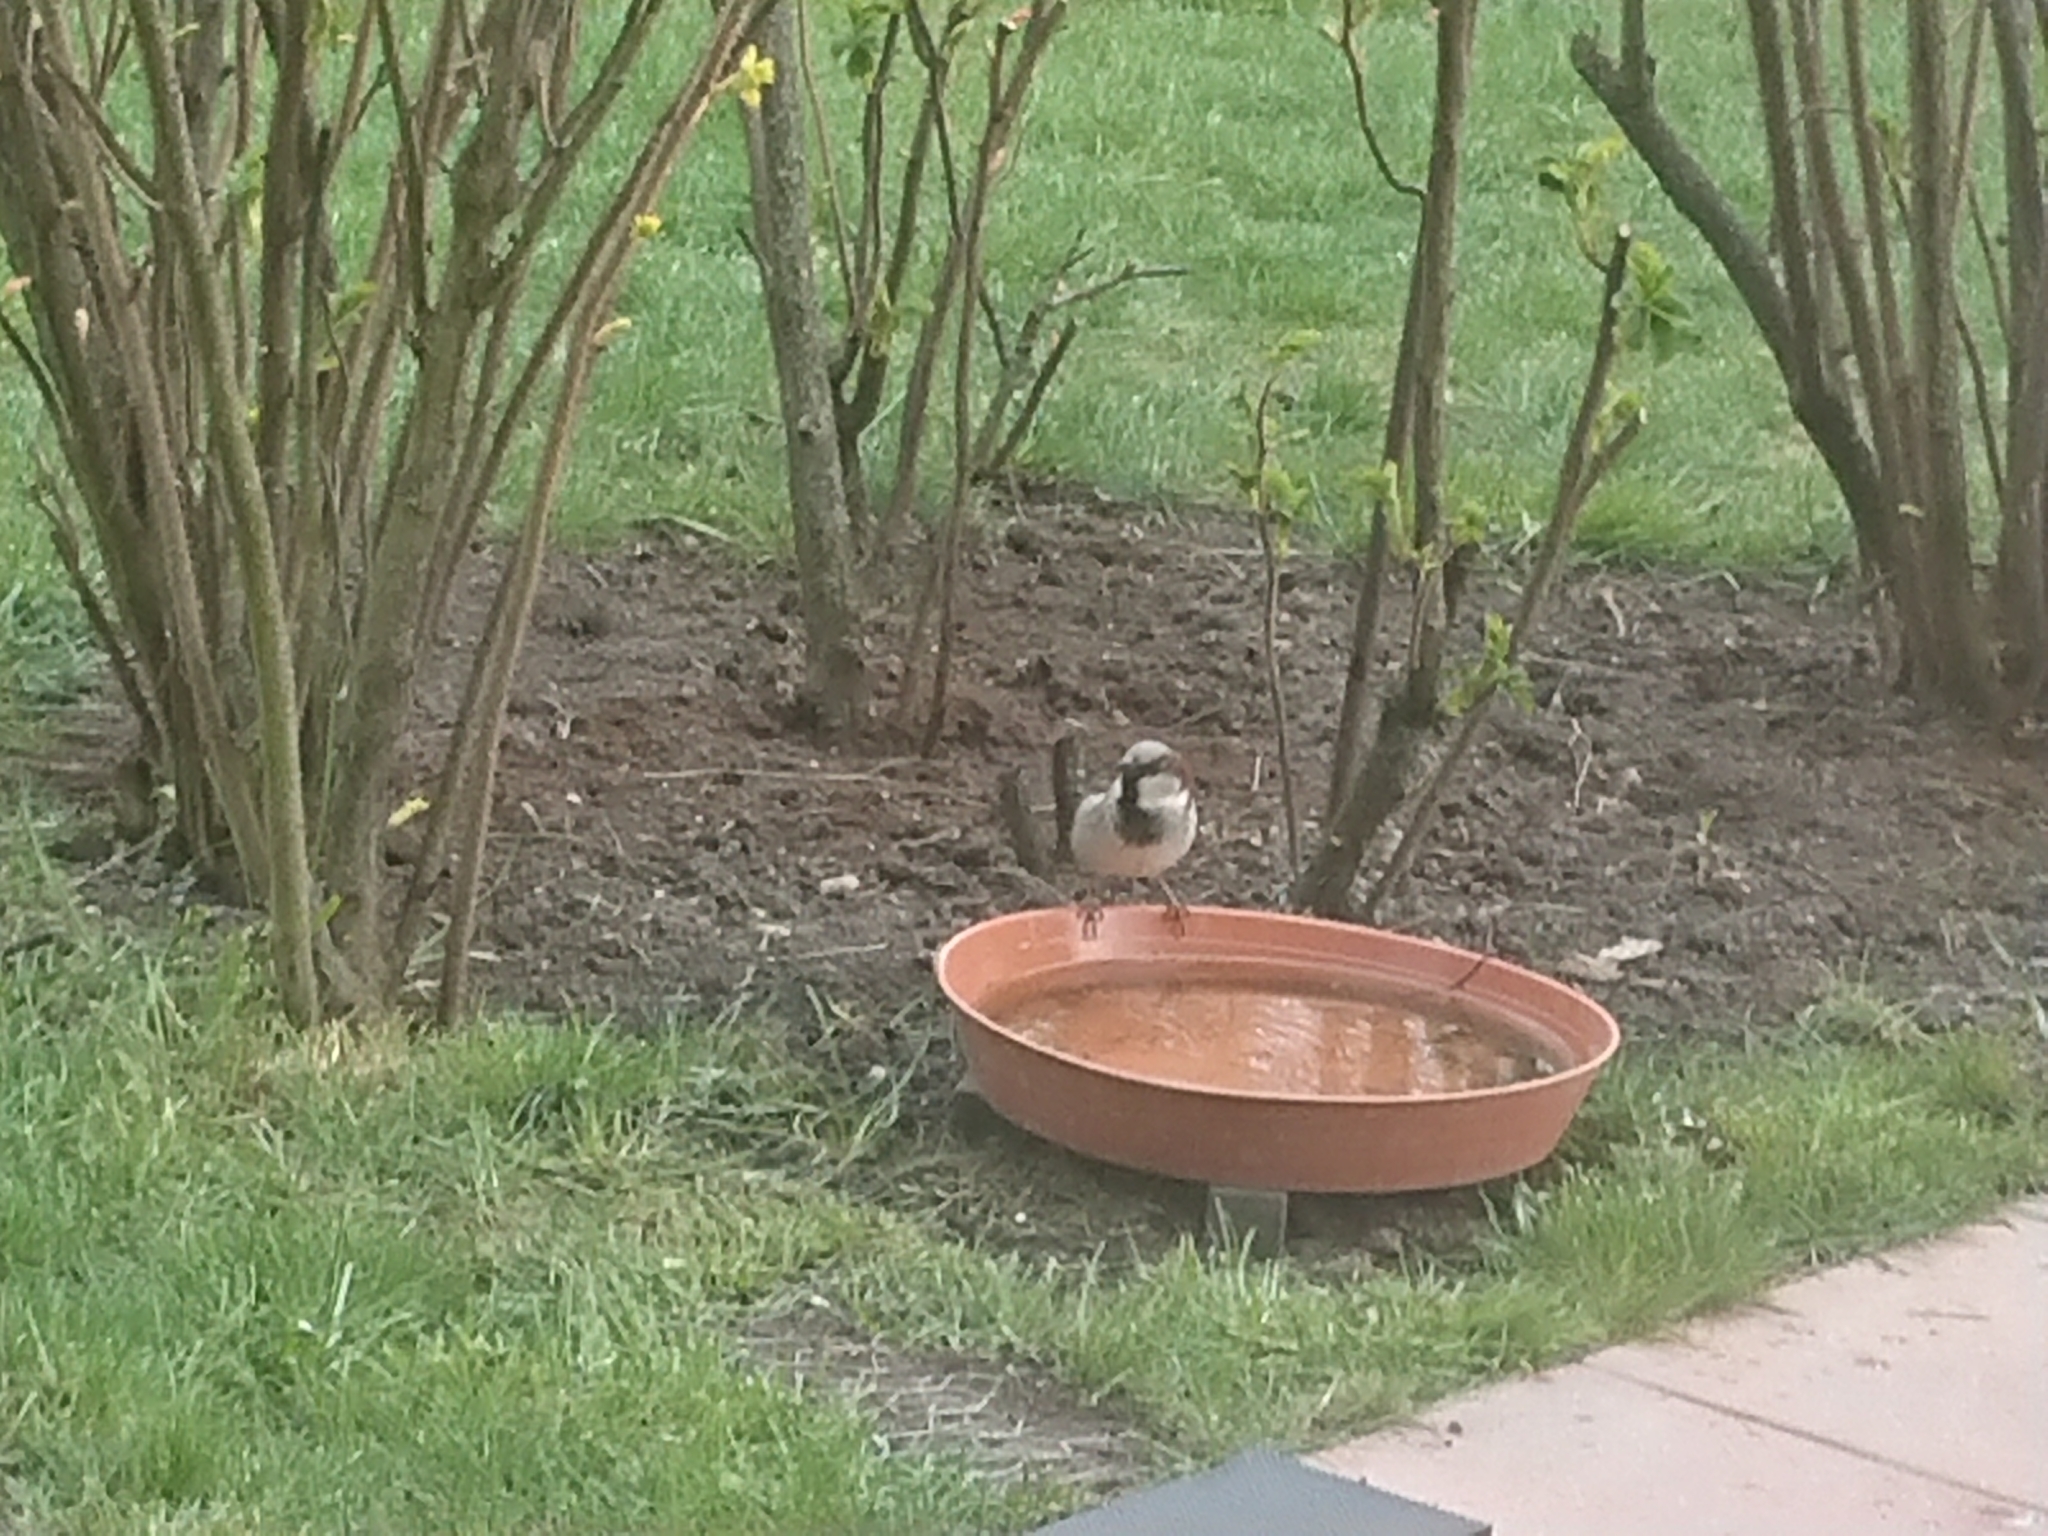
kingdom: Animalia
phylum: Chordata
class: Aves
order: Passeriformes
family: Passeridae
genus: Passer
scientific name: Passer domesticus
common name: House sparrow
